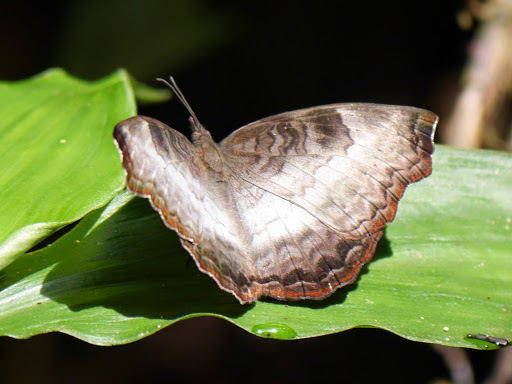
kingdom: Animalia
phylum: Arthropoda
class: Insecta
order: Lepidoptera
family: Nymphalidae
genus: Ariadne
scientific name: Ariadne enotrea
